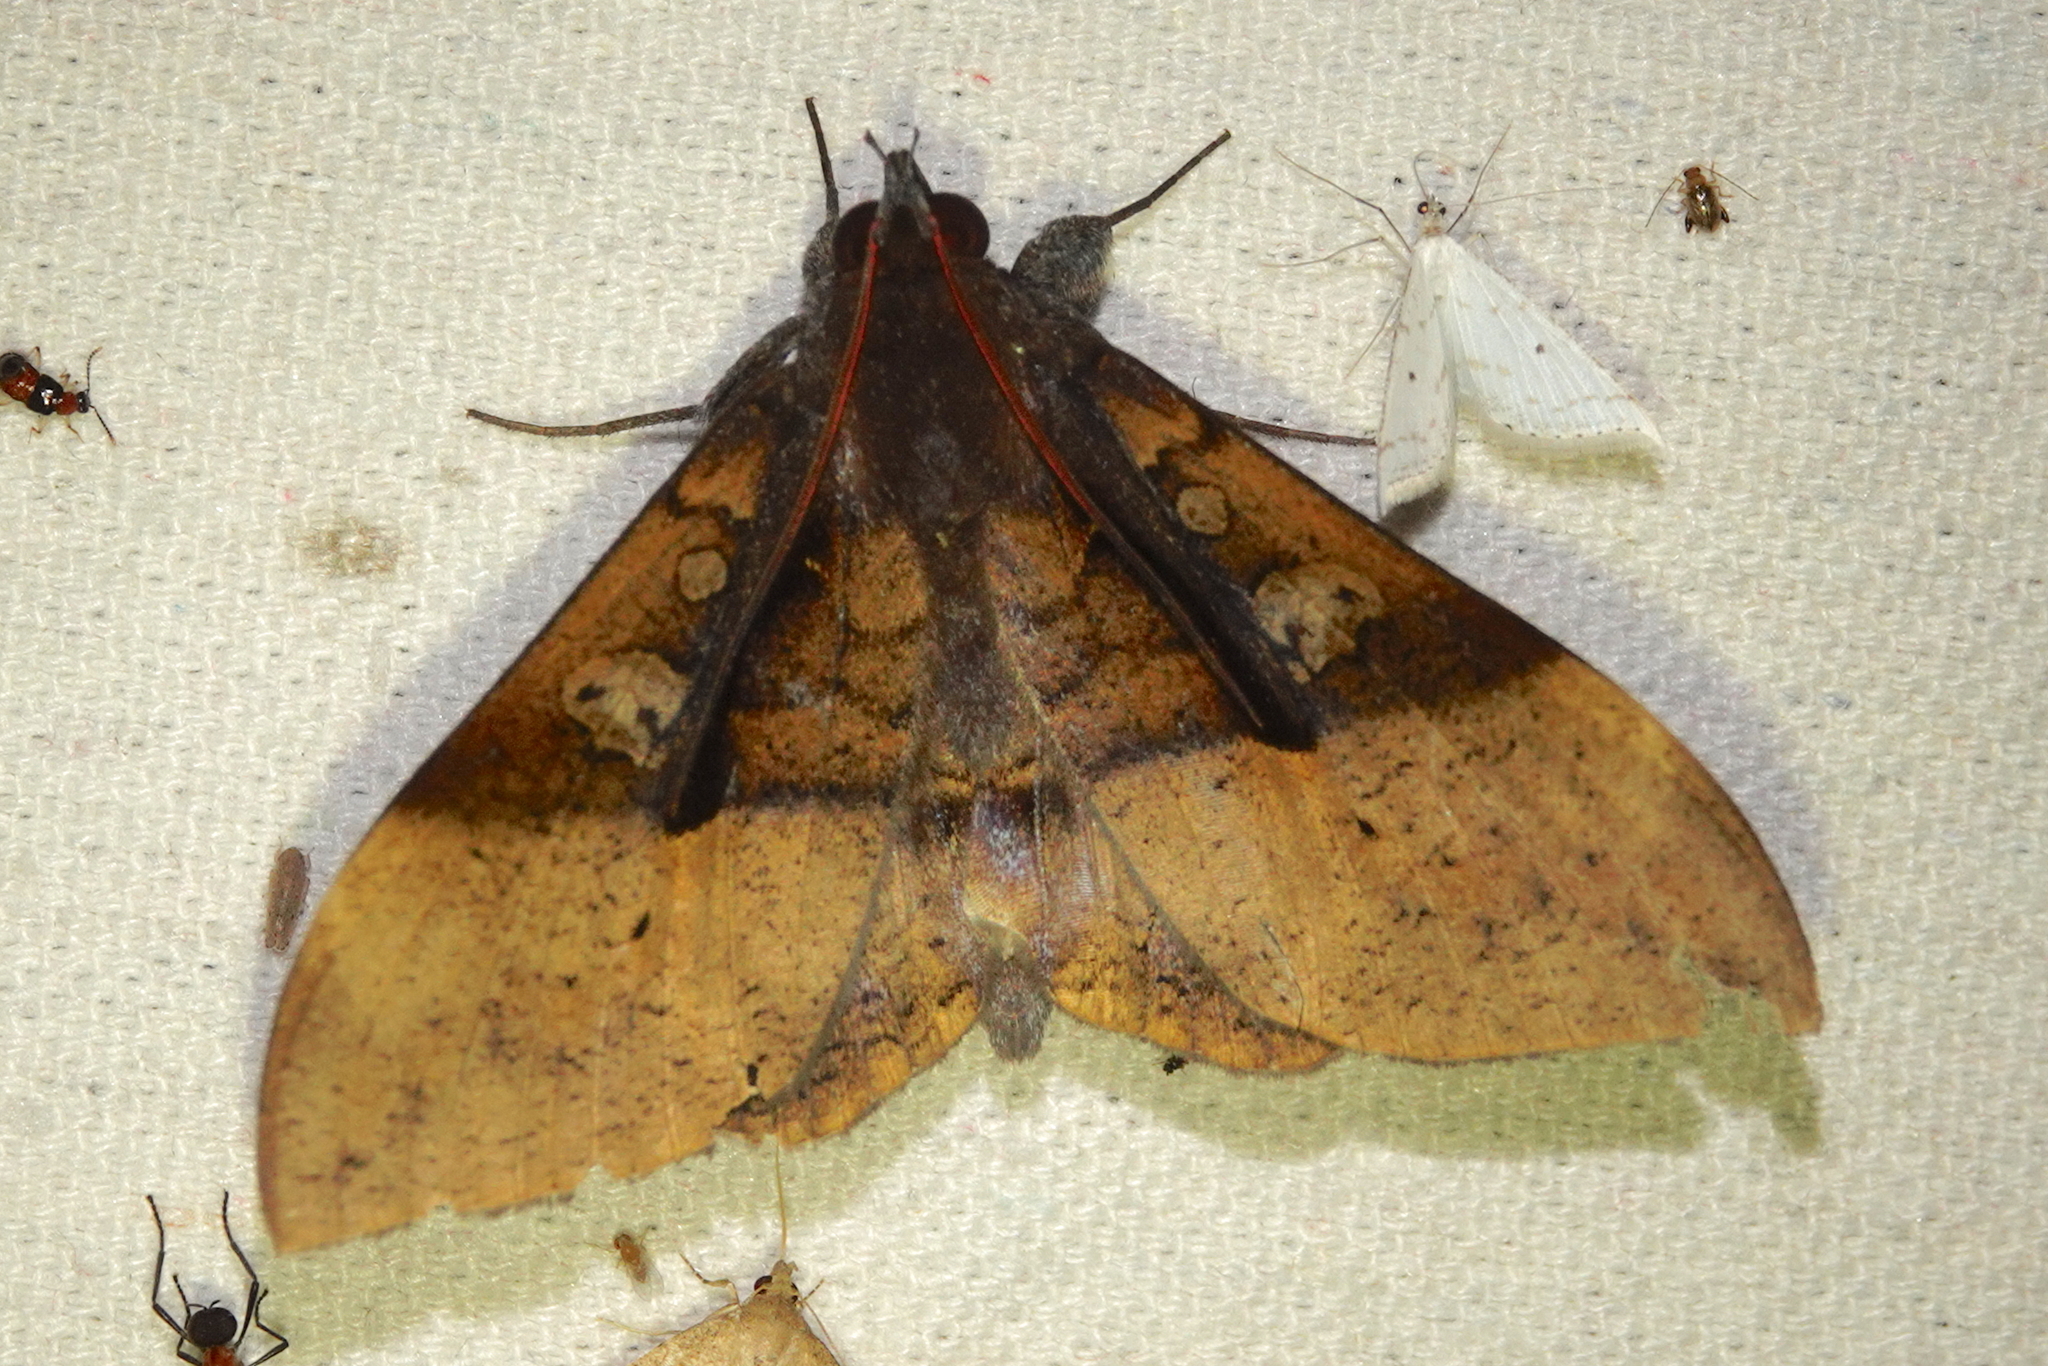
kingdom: Animalia
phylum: Arthropoda
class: Insecta
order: Lepidoptera
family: Erebidae
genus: Ischyja
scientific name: Ischyja manlia
